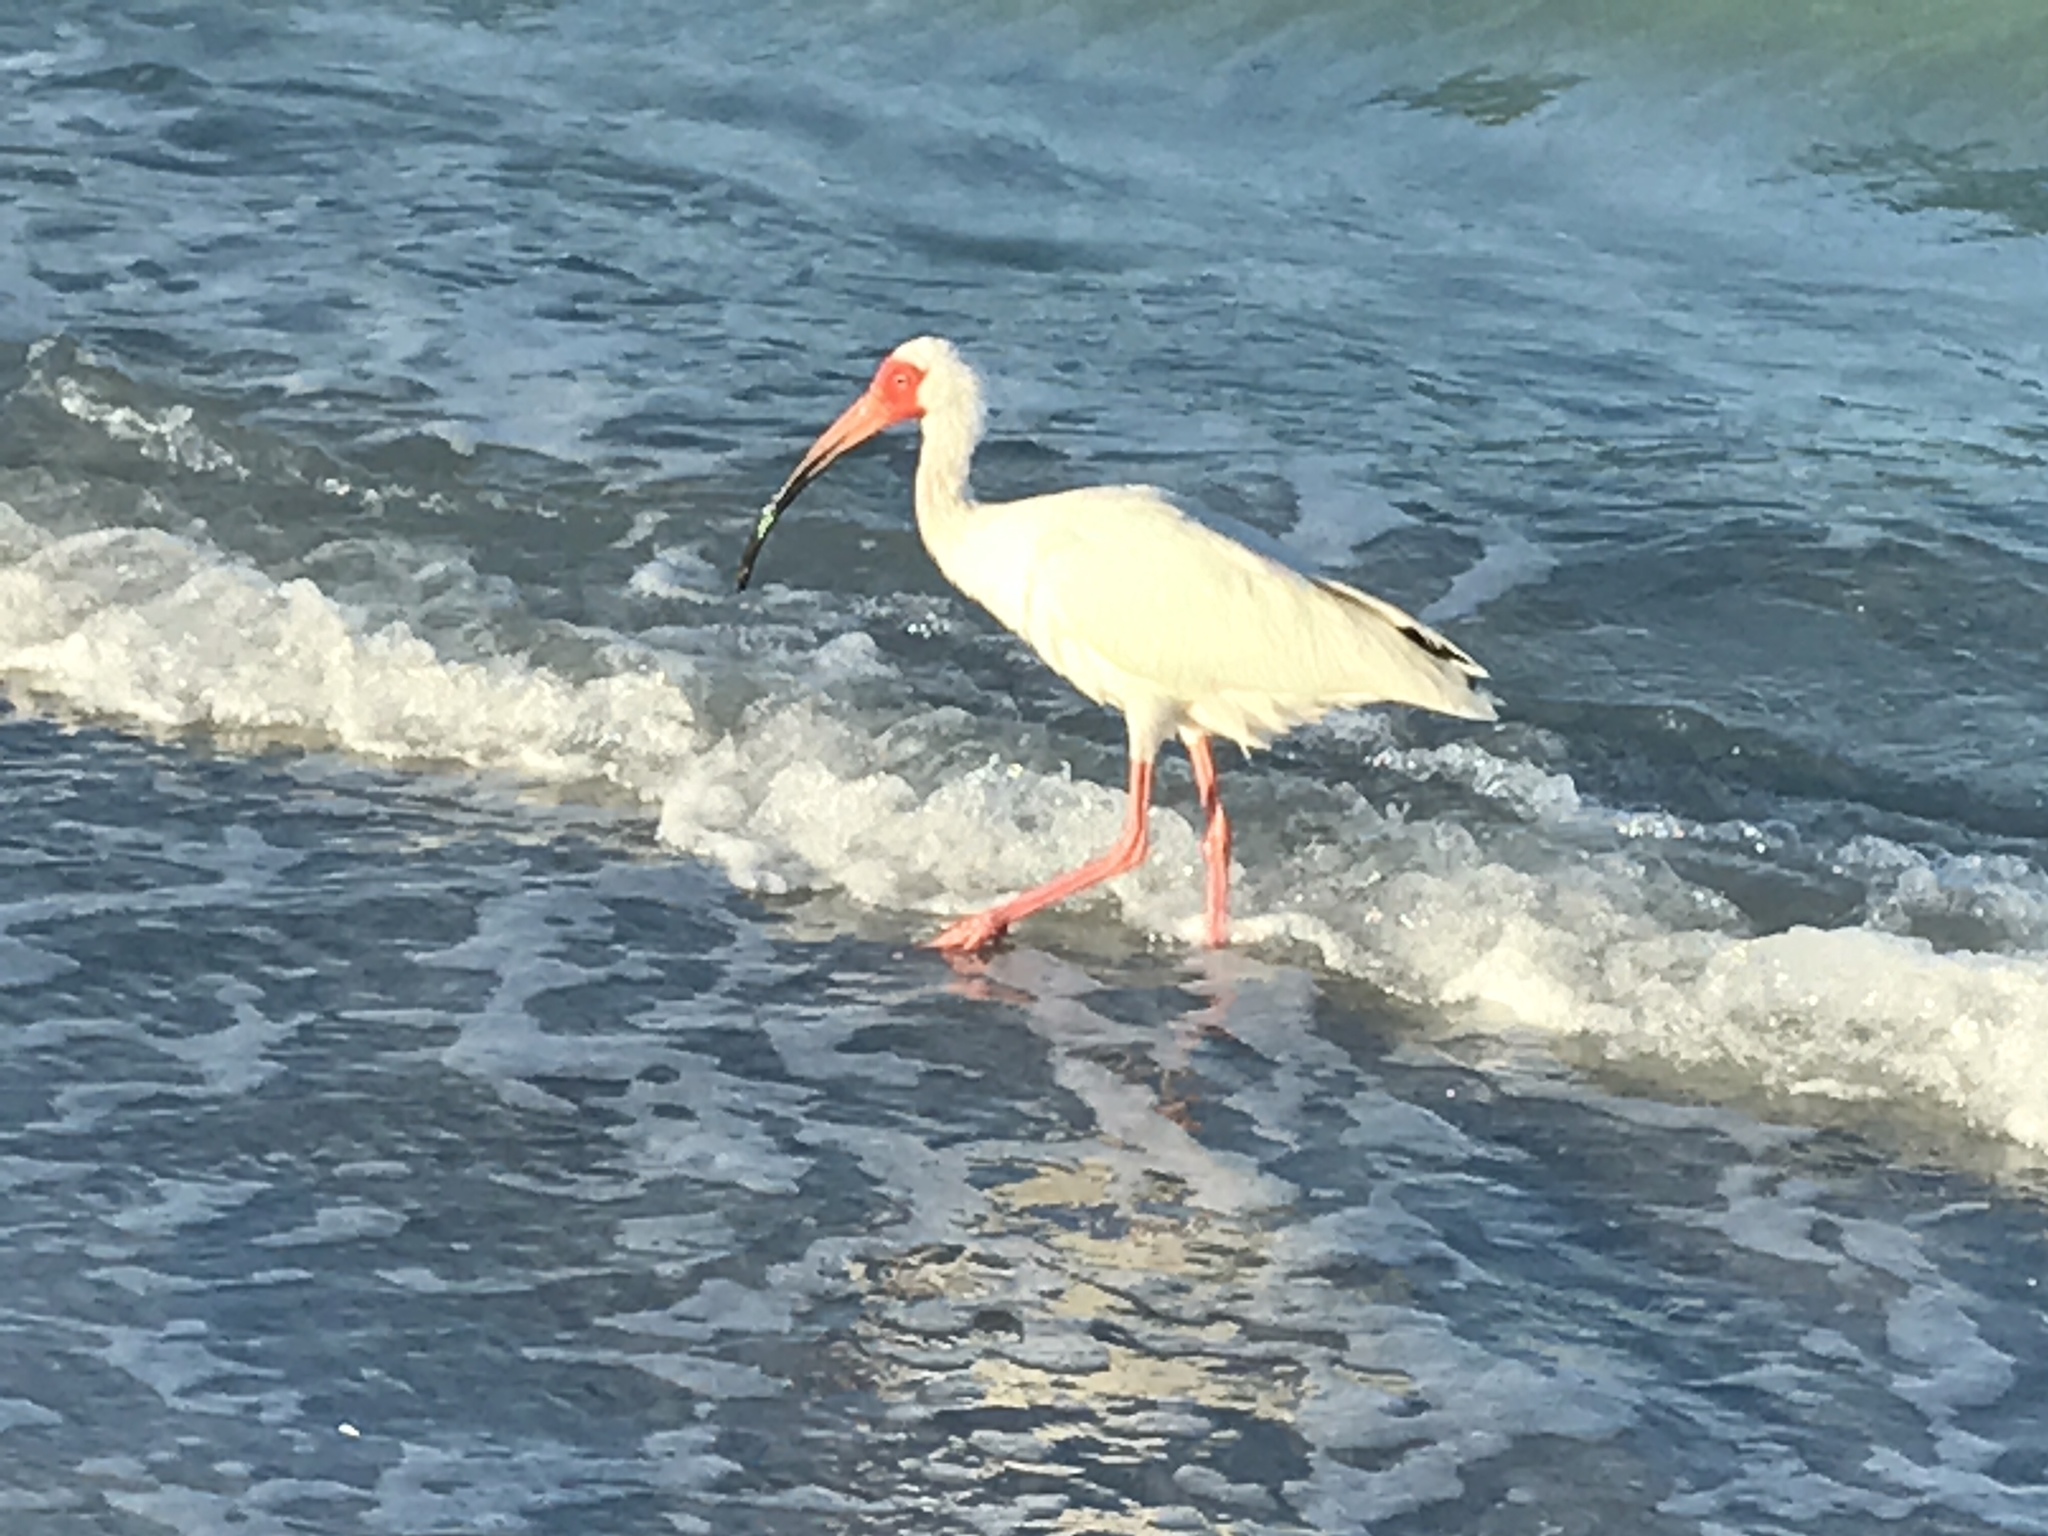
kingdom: Animalia
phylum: Chordata
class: Aves
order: Pelecaniformes
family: Threskiornithidae
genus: Eudocimus
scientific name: Eudocimus albus
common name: White ibis
